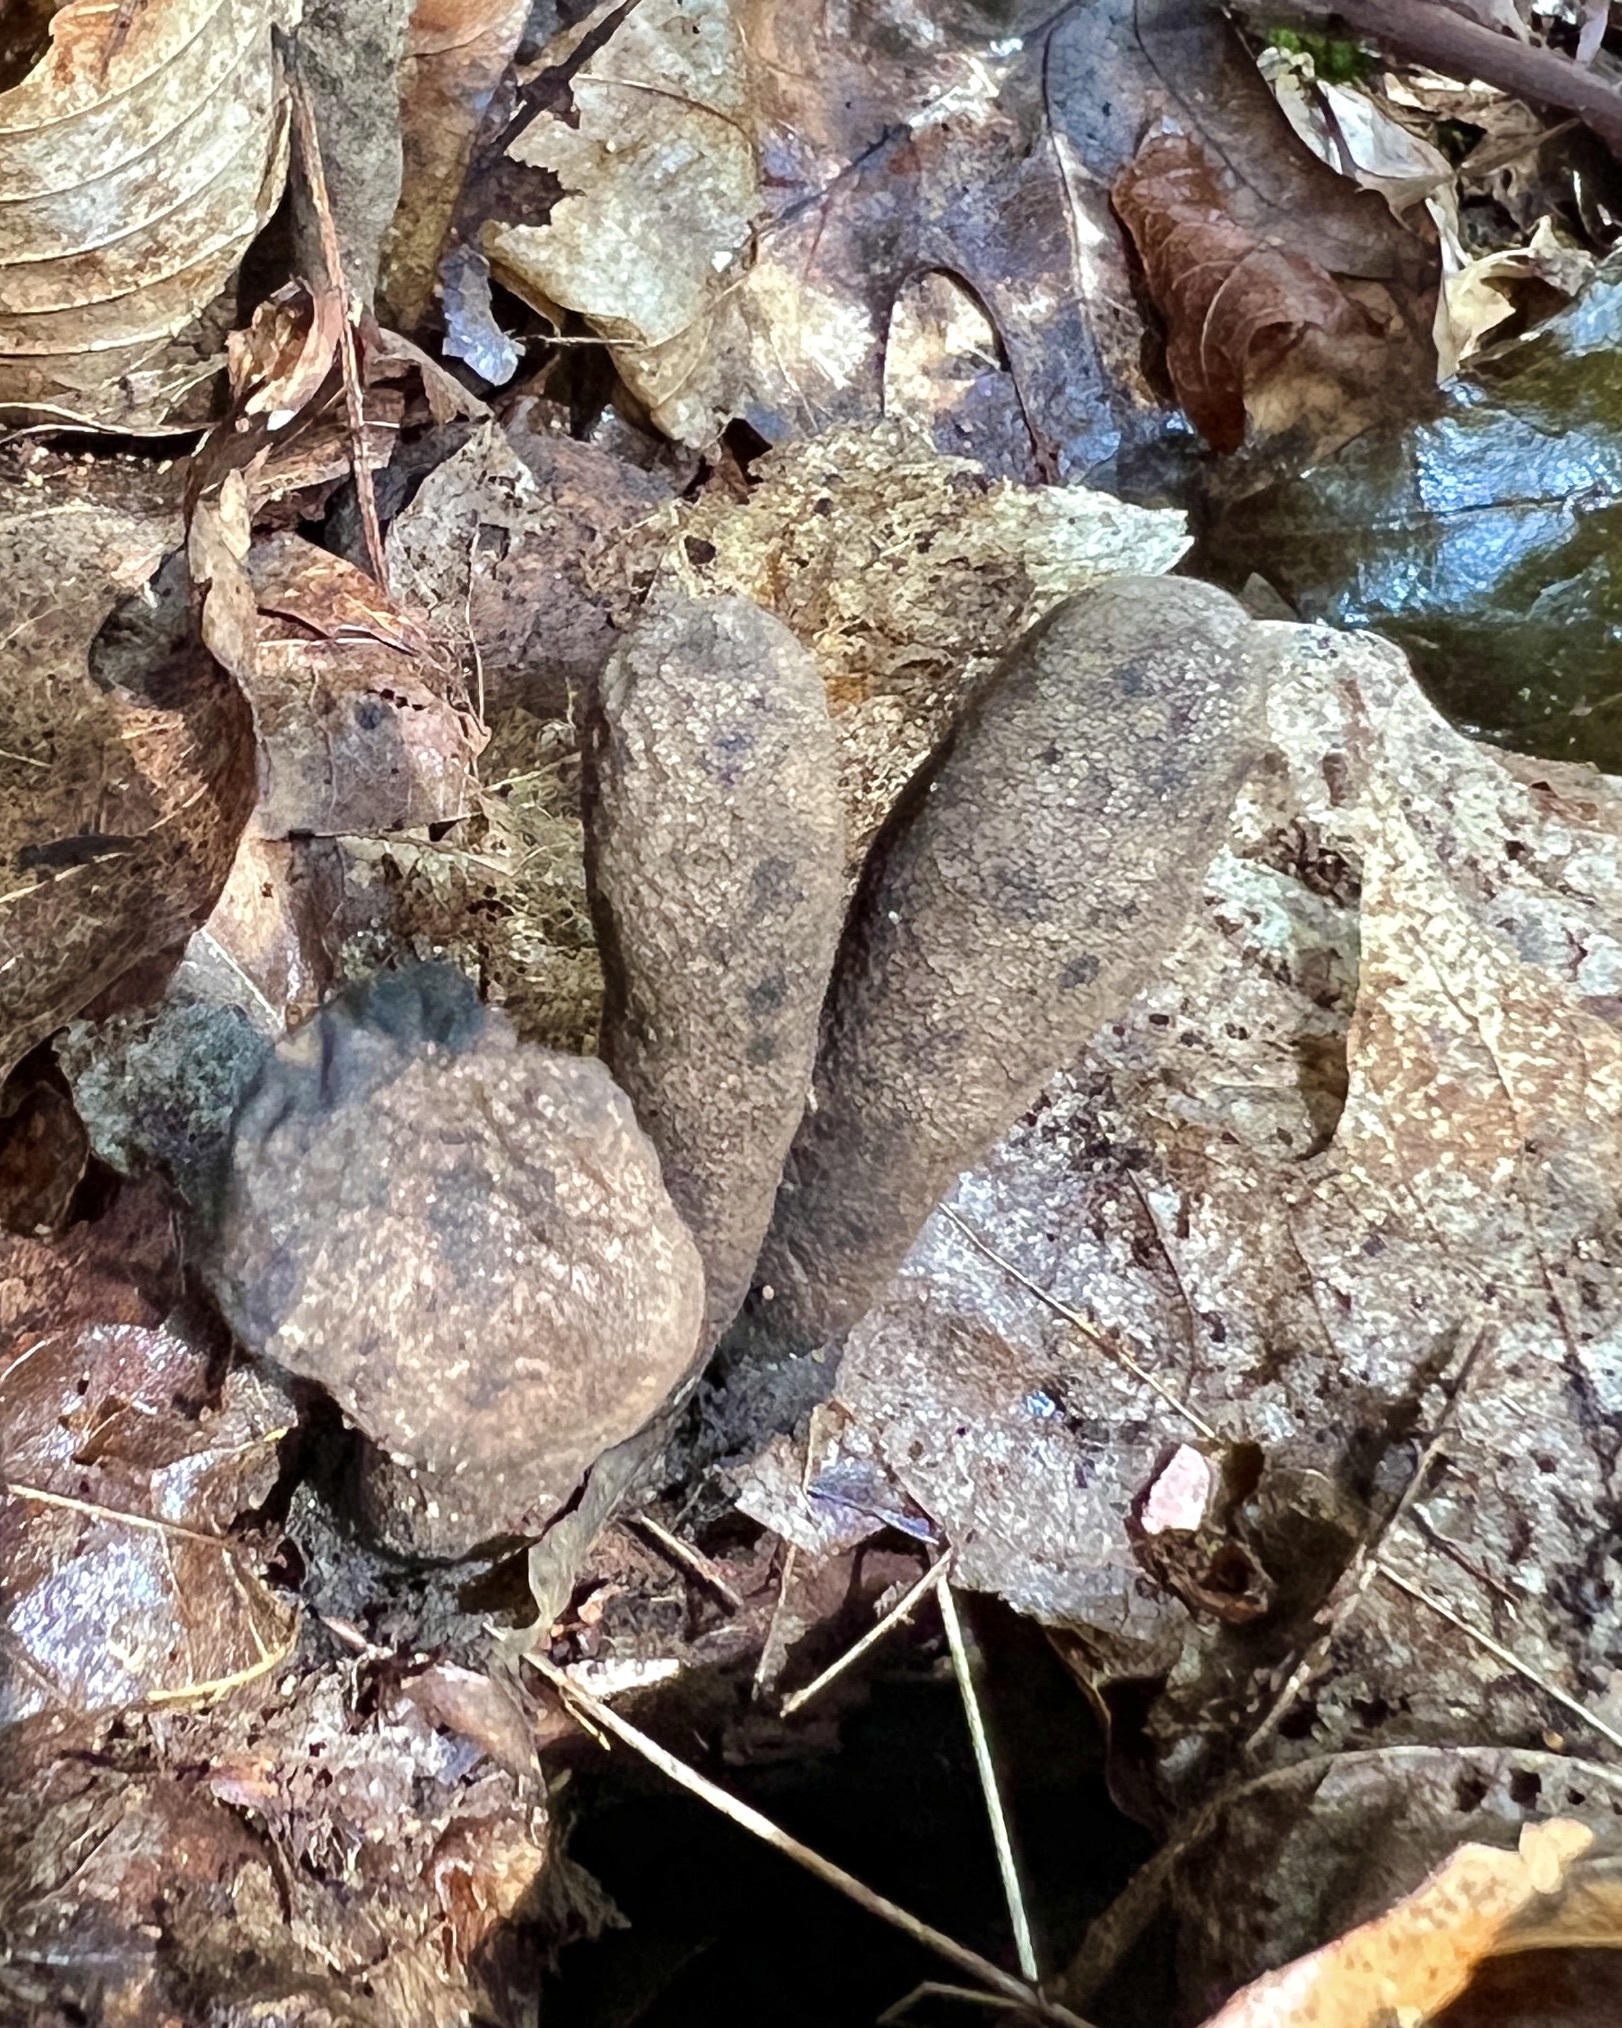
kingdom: Fungi
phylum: Ascomycota
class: Sordariomycetes
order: Xylariales
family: Xylariaceae
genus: Xylaria
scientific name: Xylaria polymorpha
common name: Dead man's fingers
